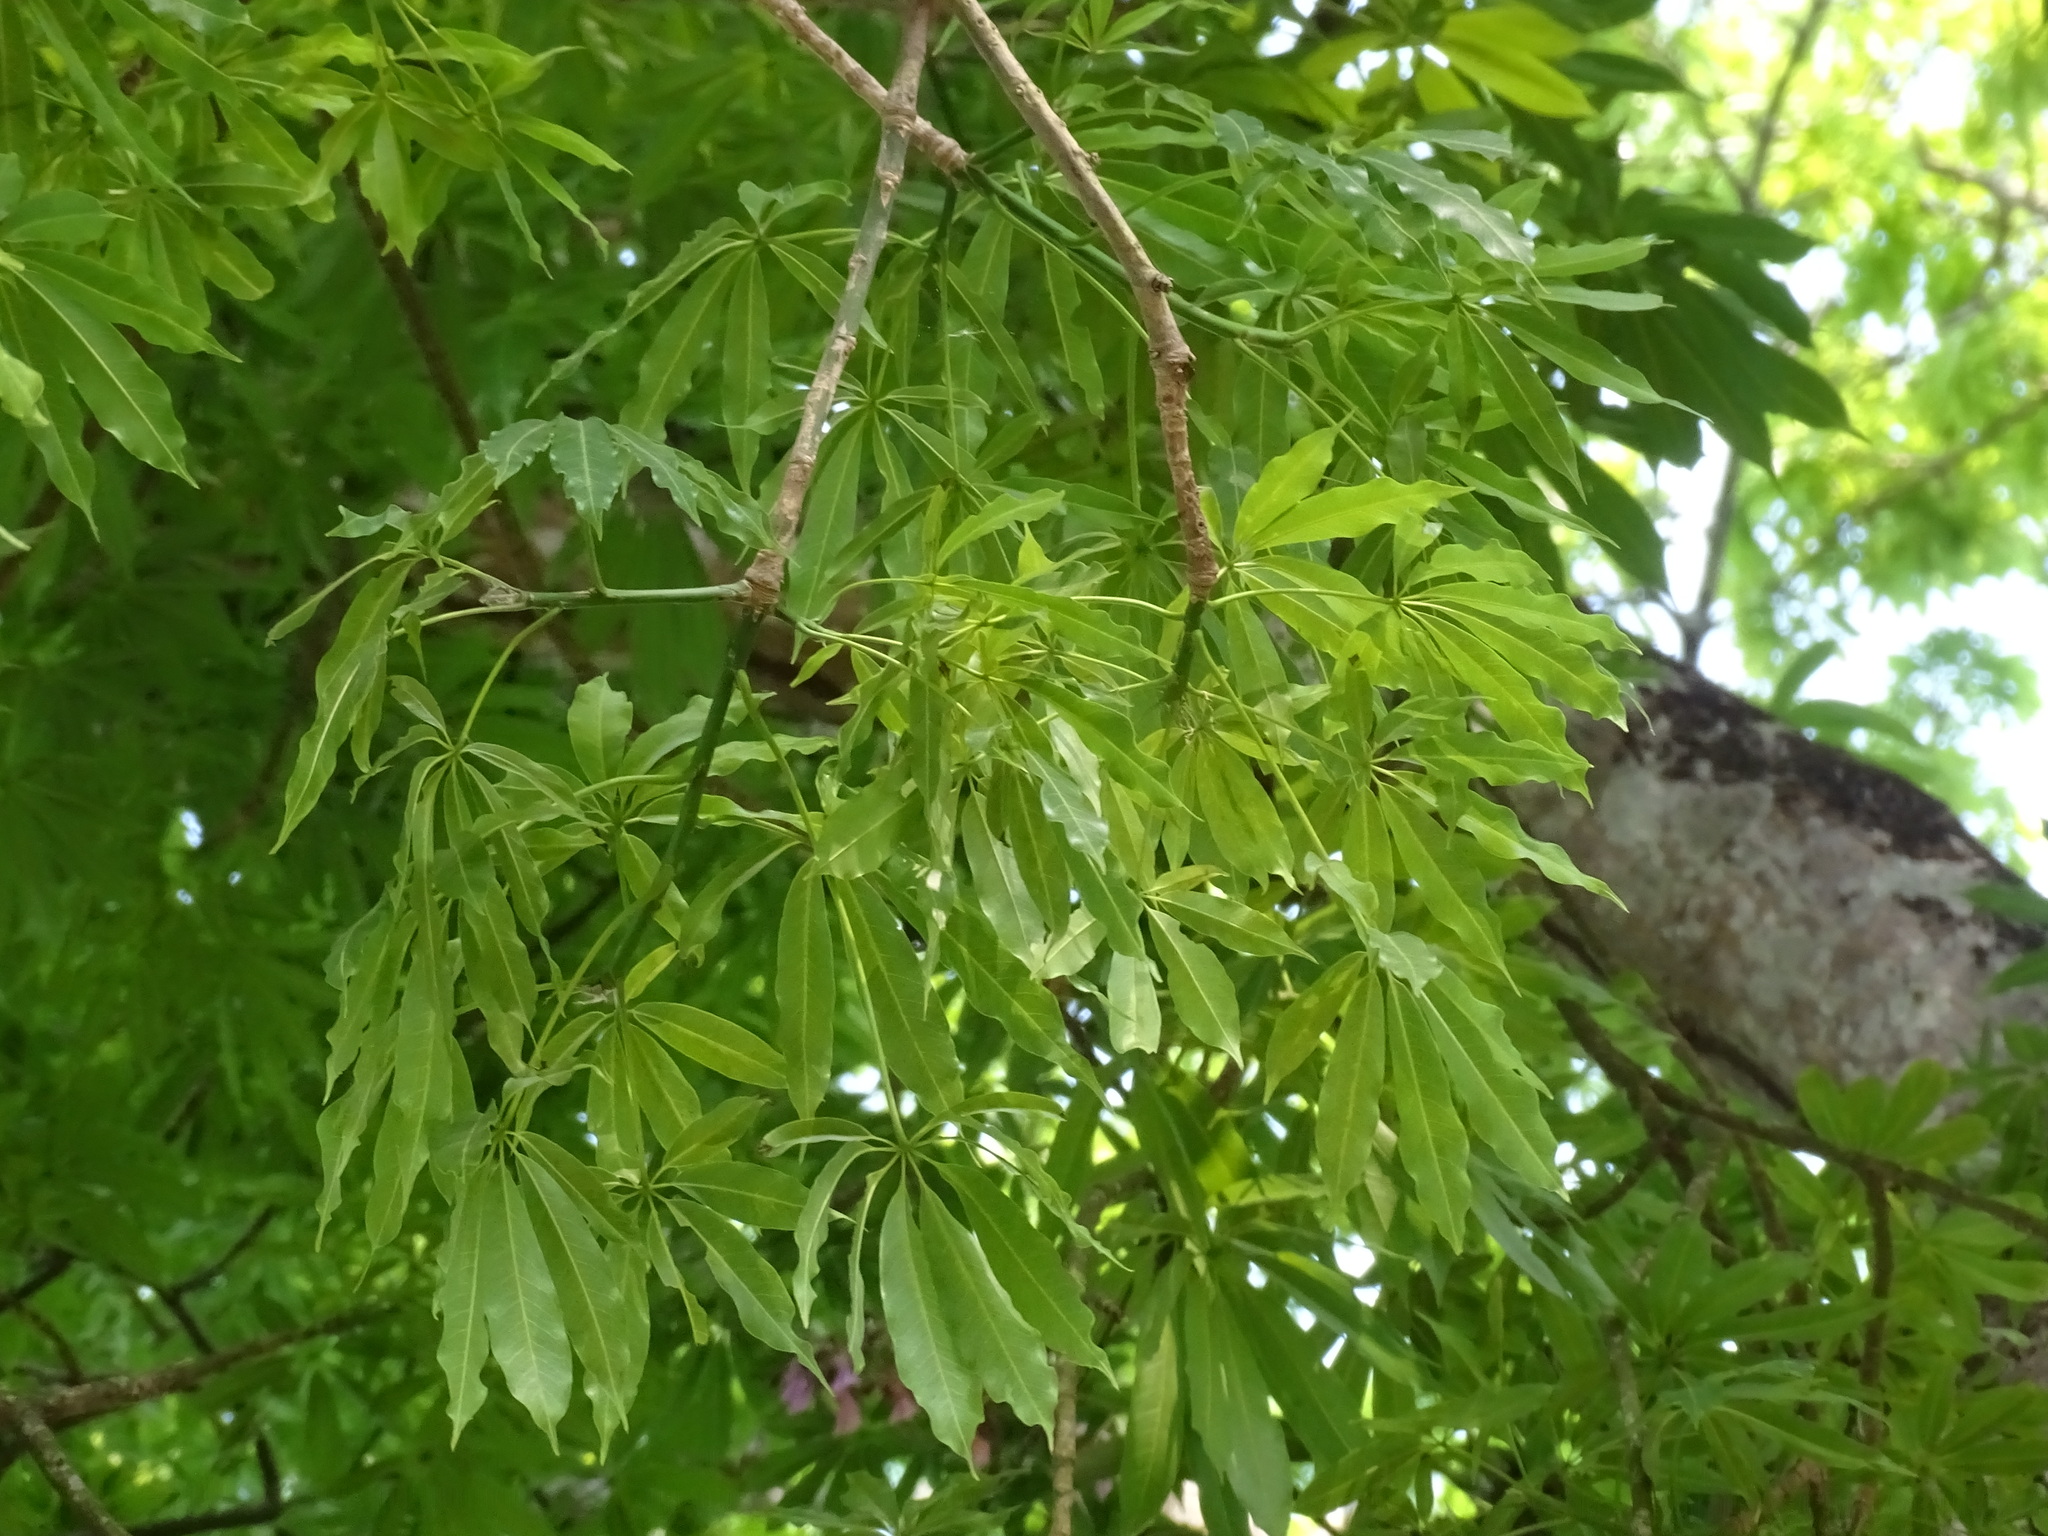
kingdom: Plantae
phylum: Tracheophyta
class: Magnoliopsida
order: Malvales
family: Malvaceae
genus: Ceiba
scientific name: Ceiba pentandra
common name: Kapok
